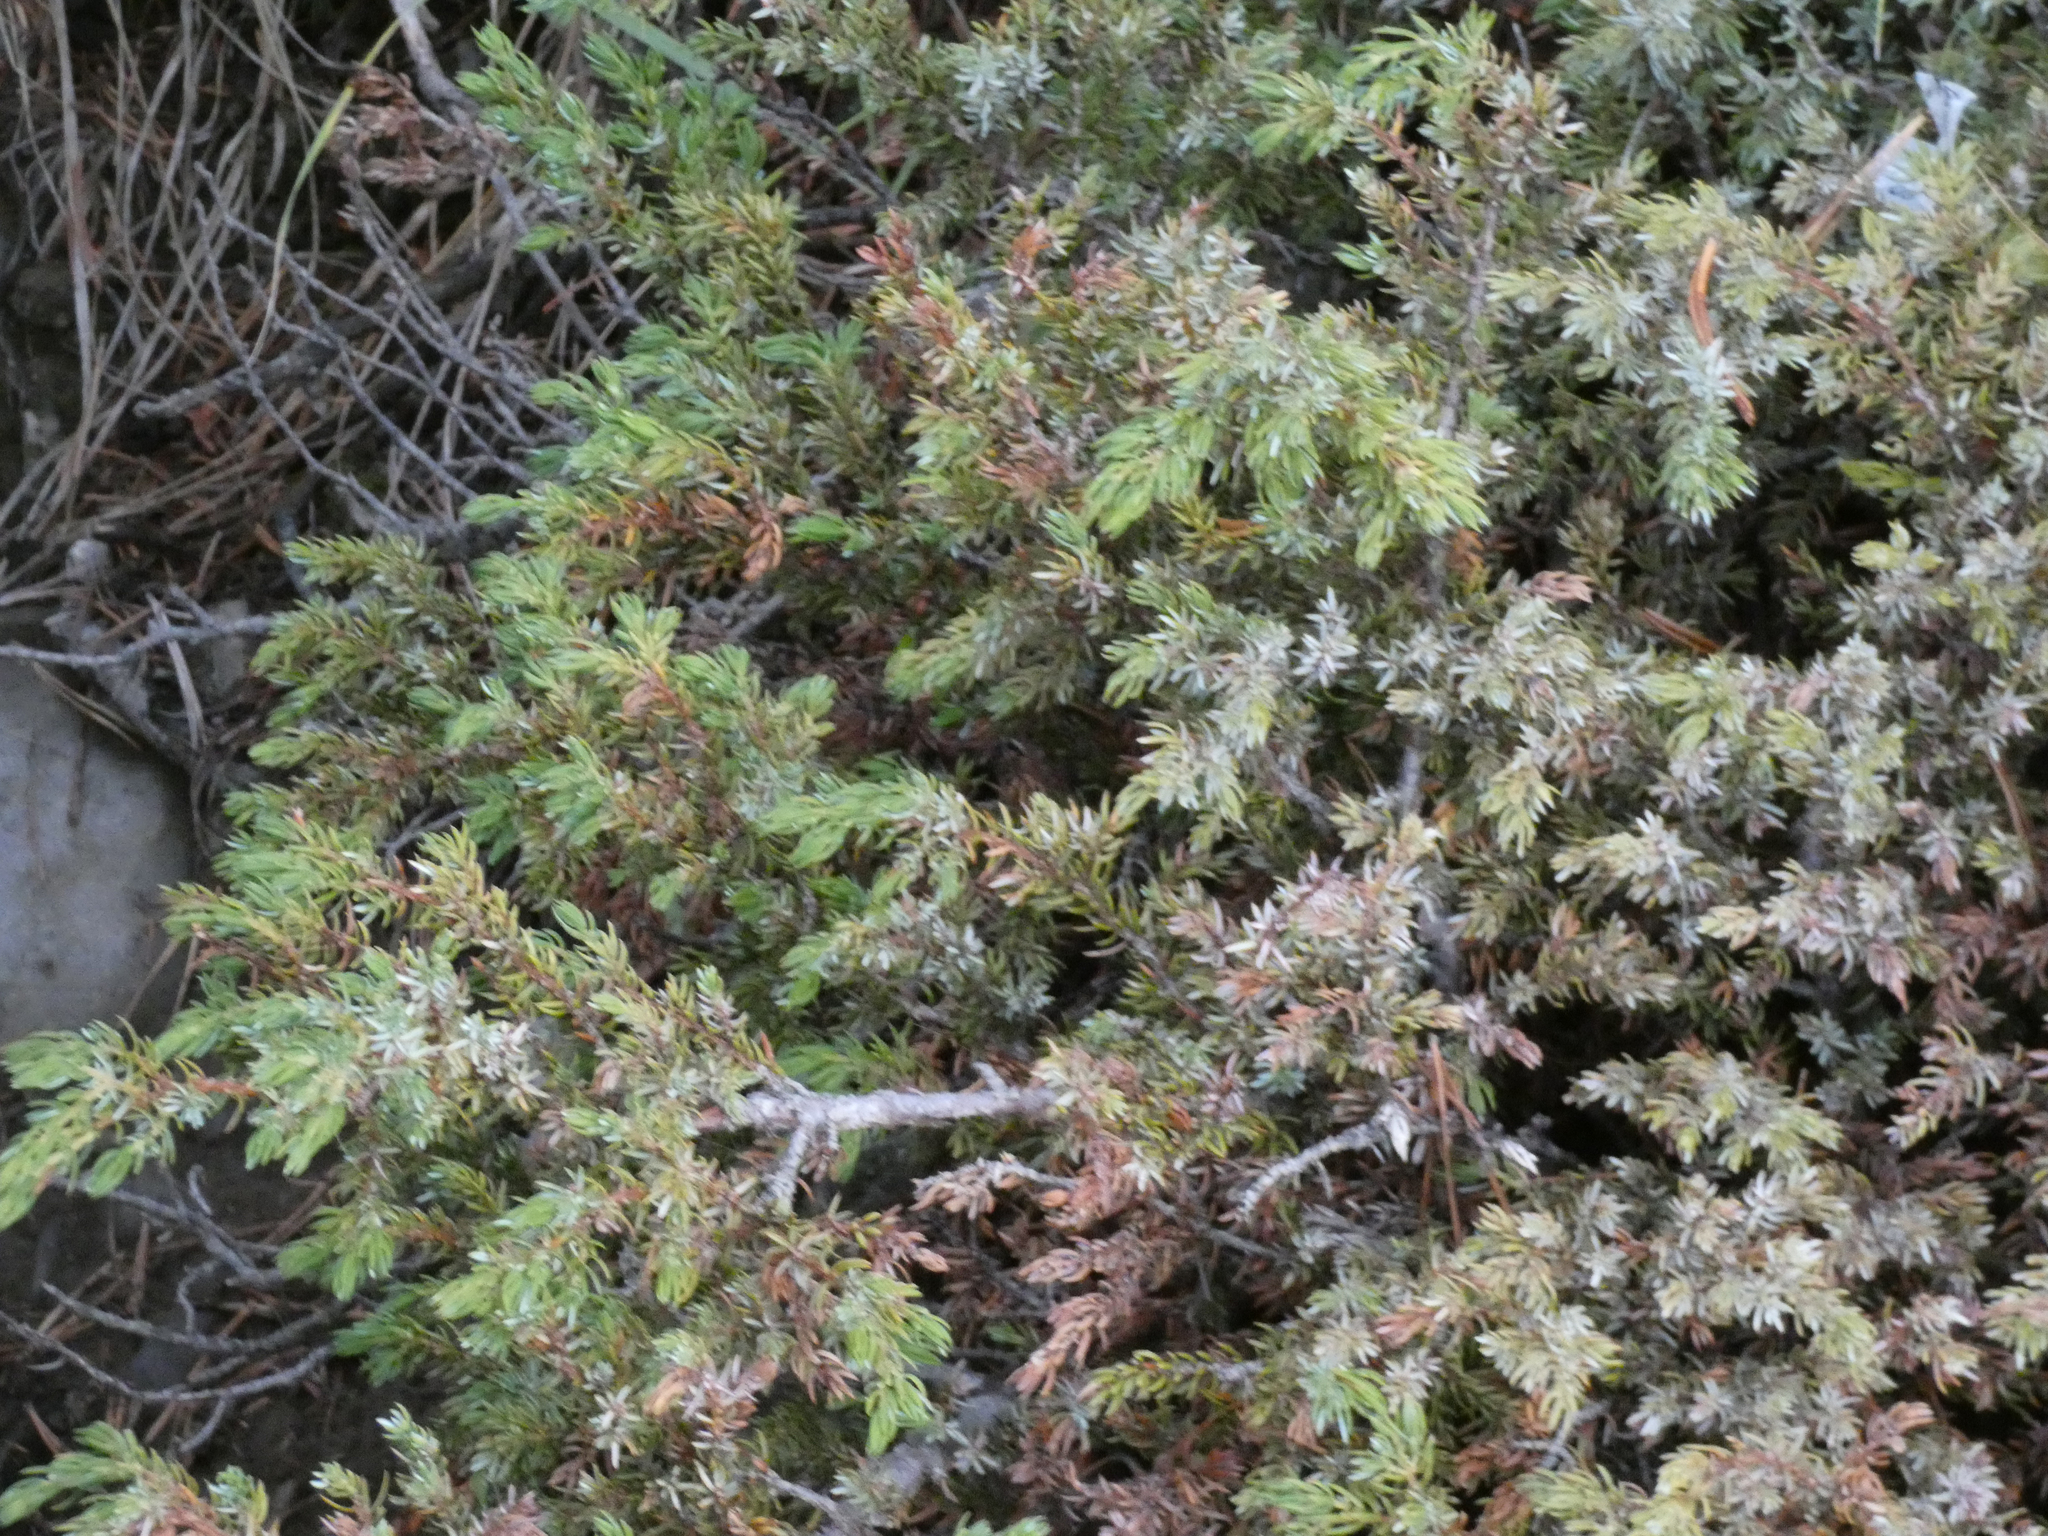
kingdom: Plantae
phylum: Tracheophyta
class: Pinopsida
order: Pinales
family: Cupressaceae
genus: Juniperus
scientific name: Juniperus communis
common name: Common juniper
